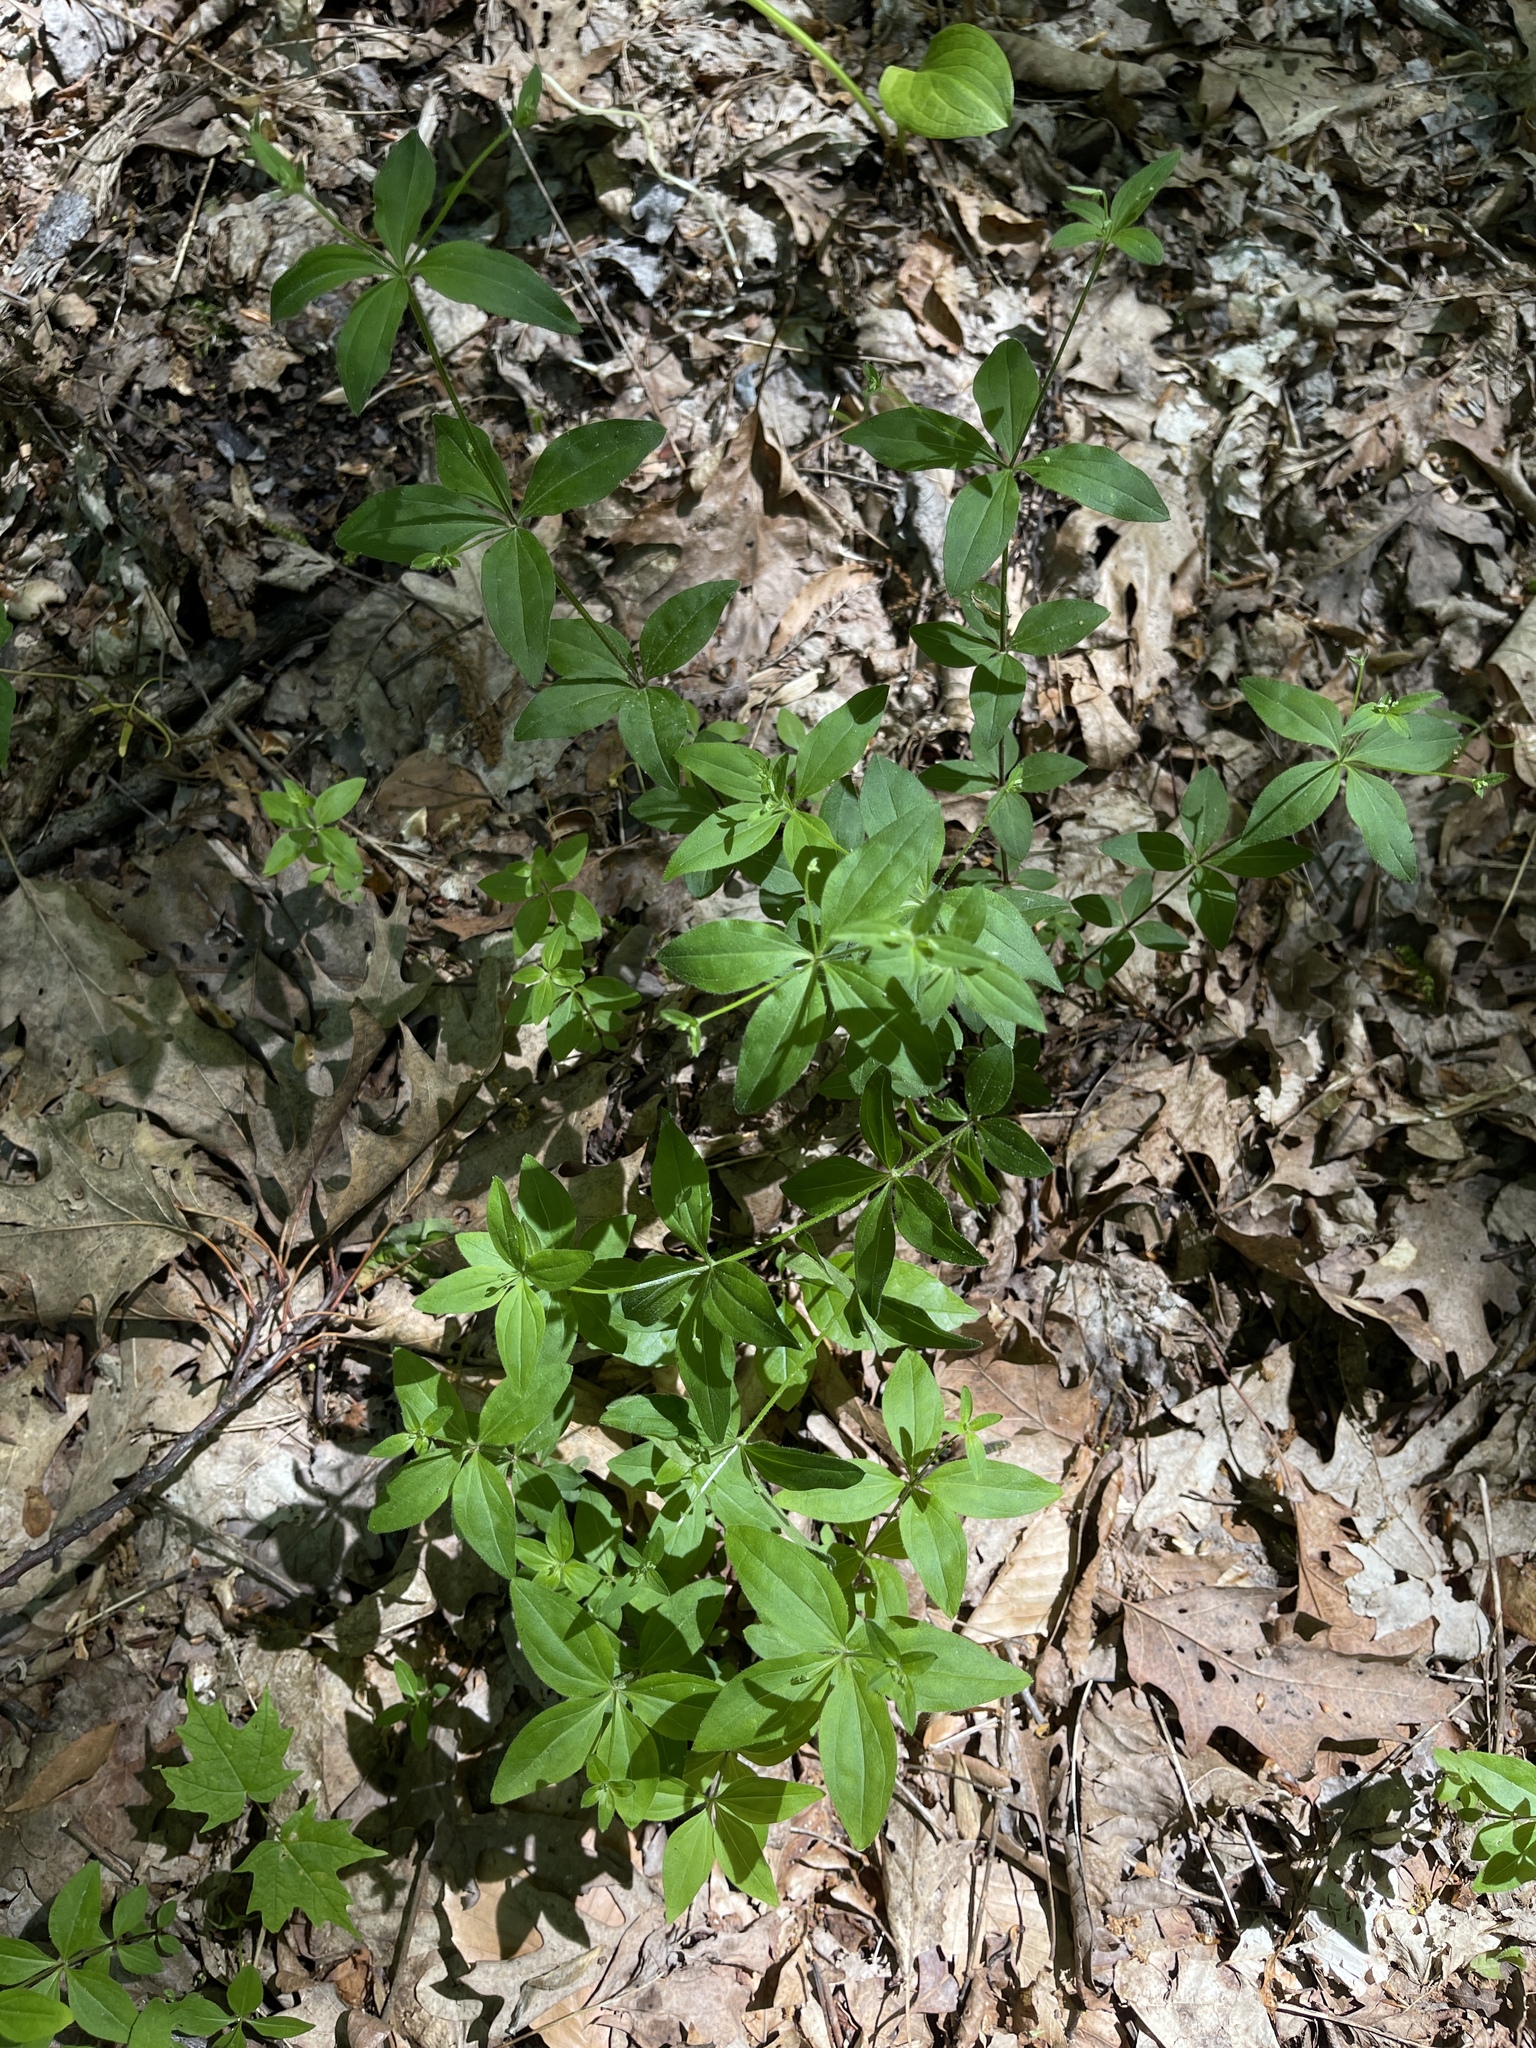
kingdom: Plantae
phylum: Tracheophyta
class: Magnoliopsida
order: Gentianales
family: Rubiaceae
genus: Galium
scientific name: Galium circaezans
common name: Forest bedstraw
